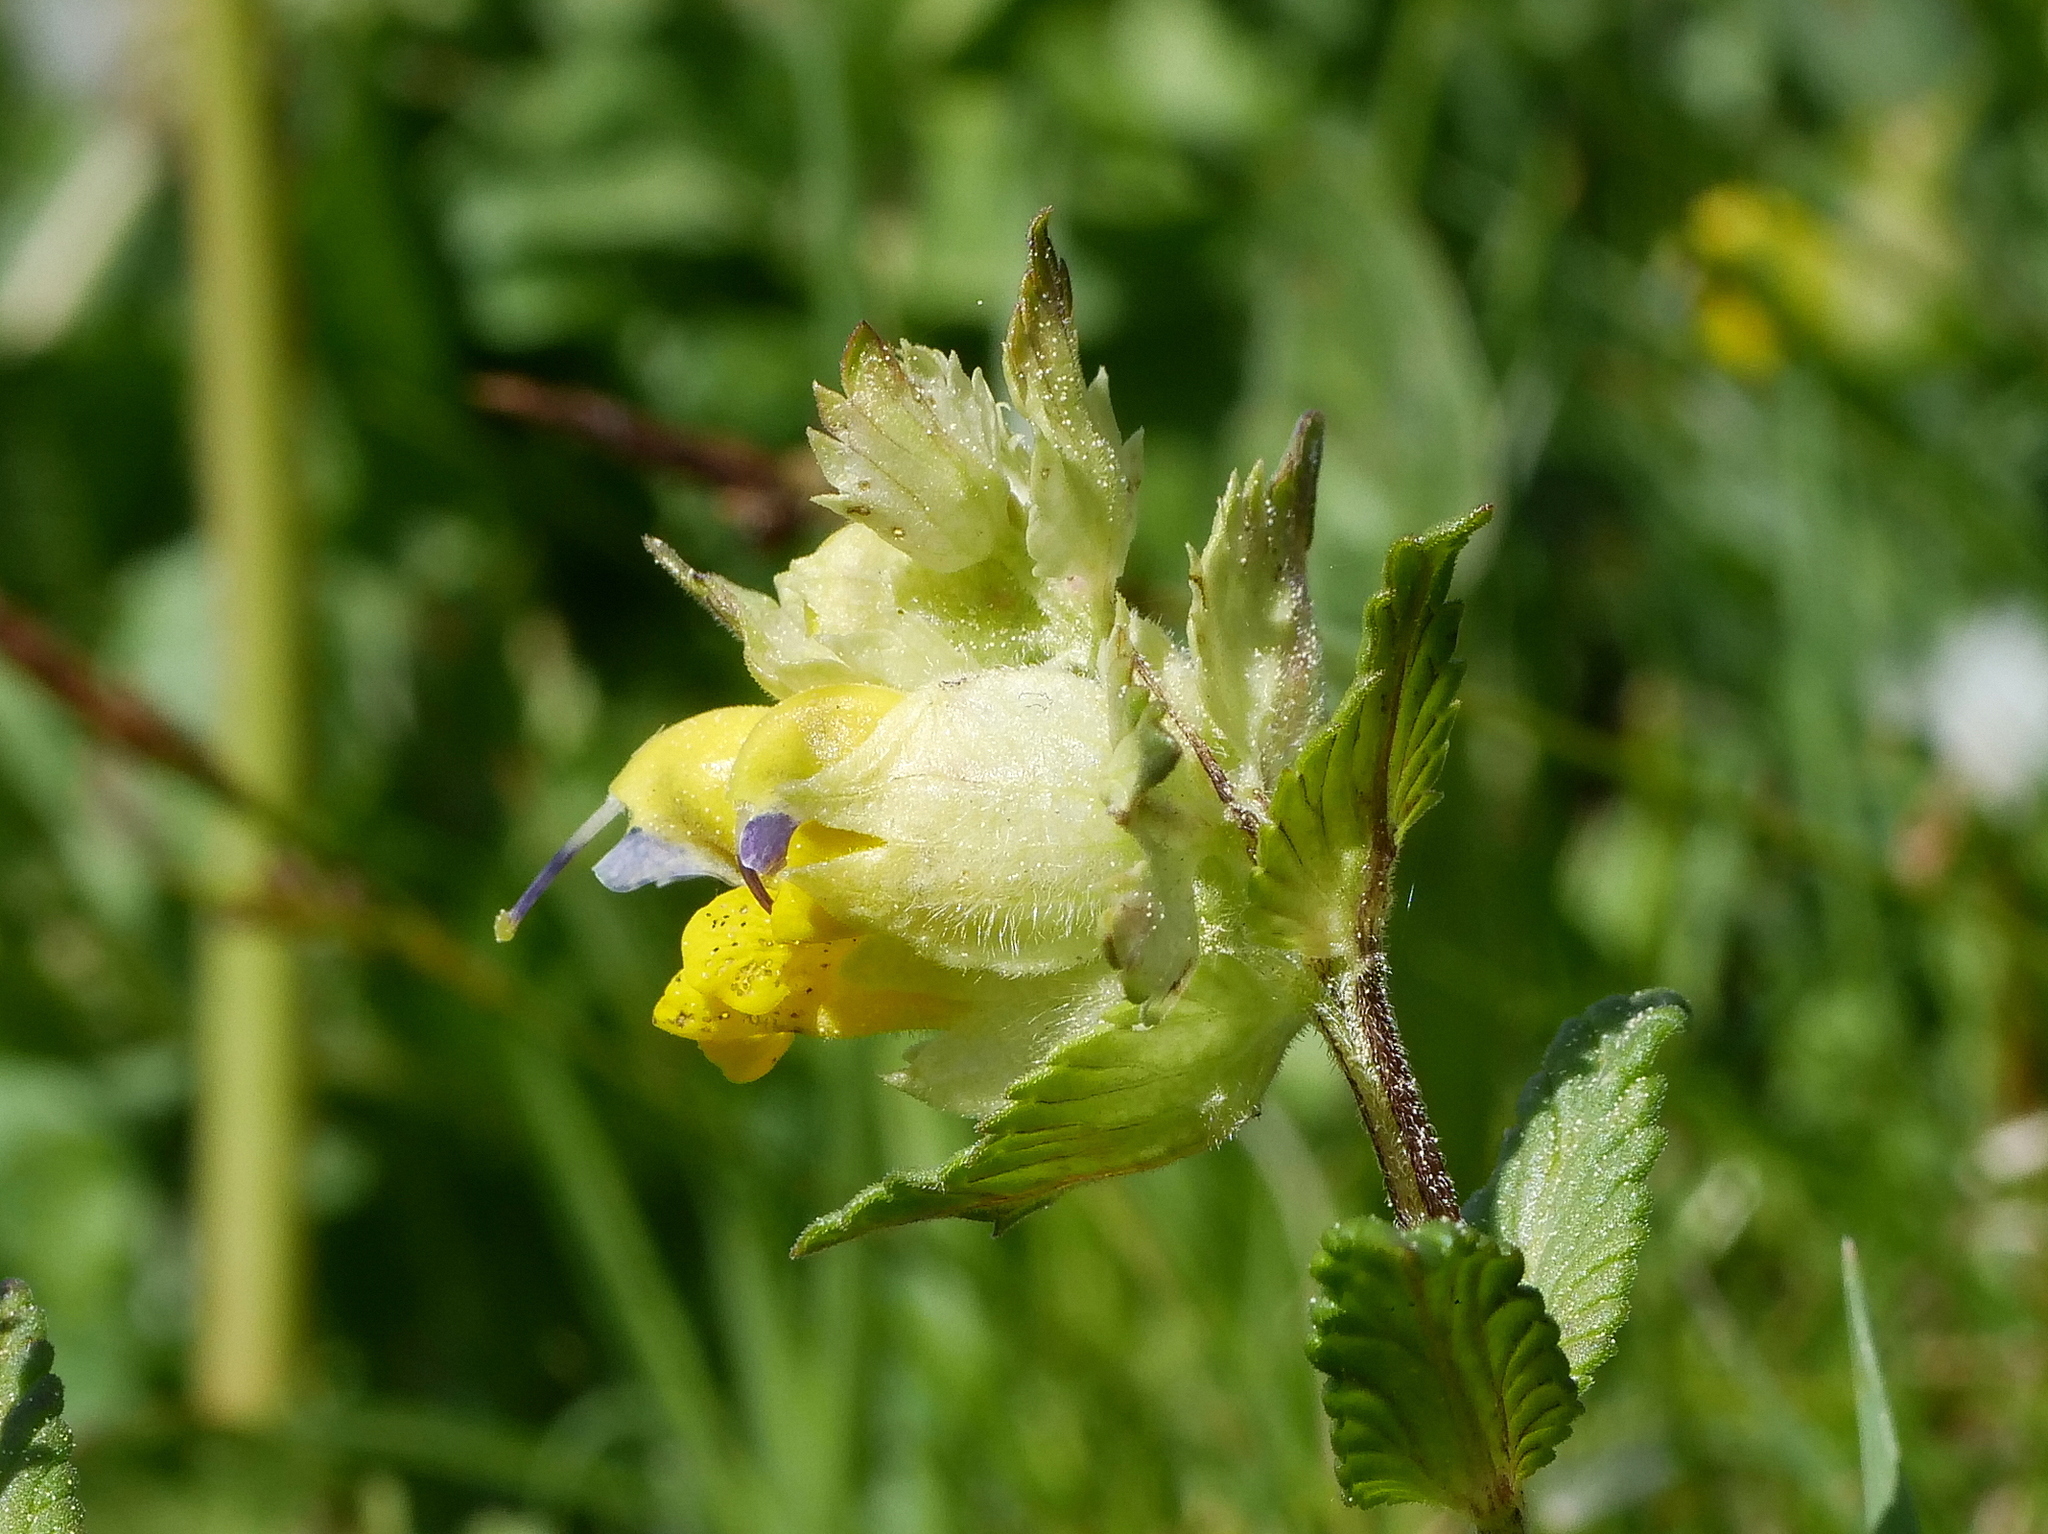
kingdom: Plantae
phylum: Tracheophyta
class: Magnoliopsida
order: Lamiales
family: Orobanchaceae
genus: Rhinanthus
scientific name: Rhinanthus alectorolophus
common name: Greater yellow-rattle
